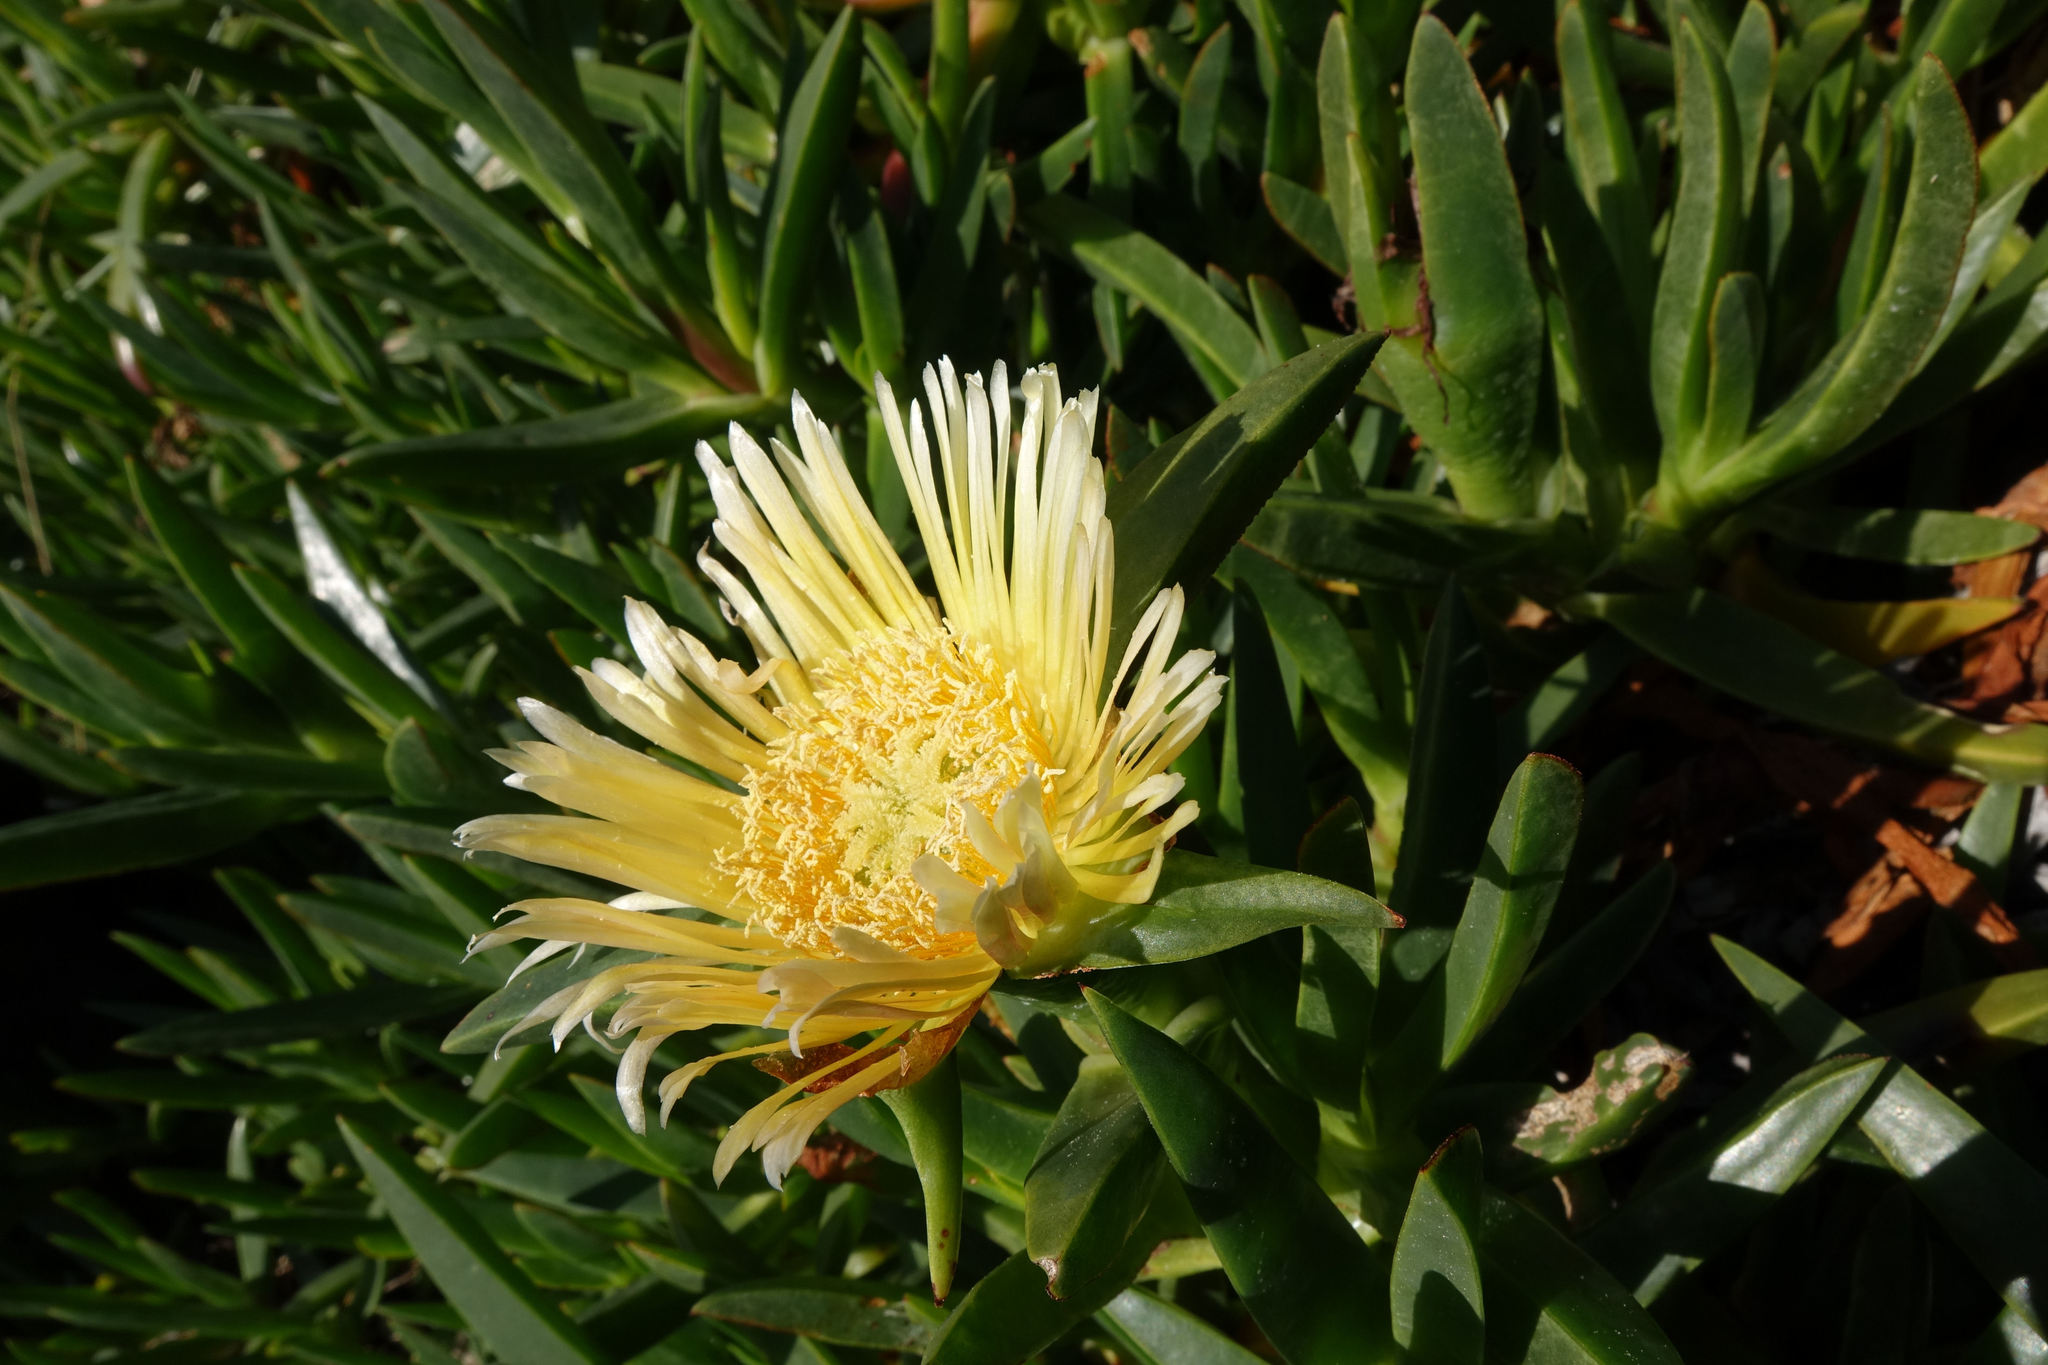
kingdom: Plantae
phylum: Tracheophyta
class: Magnoliopsida
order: Caryophyllales
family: Aizoaceae
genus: Carpobrotus
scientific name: Carpobrotus edulis
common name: Hottentot-fig
